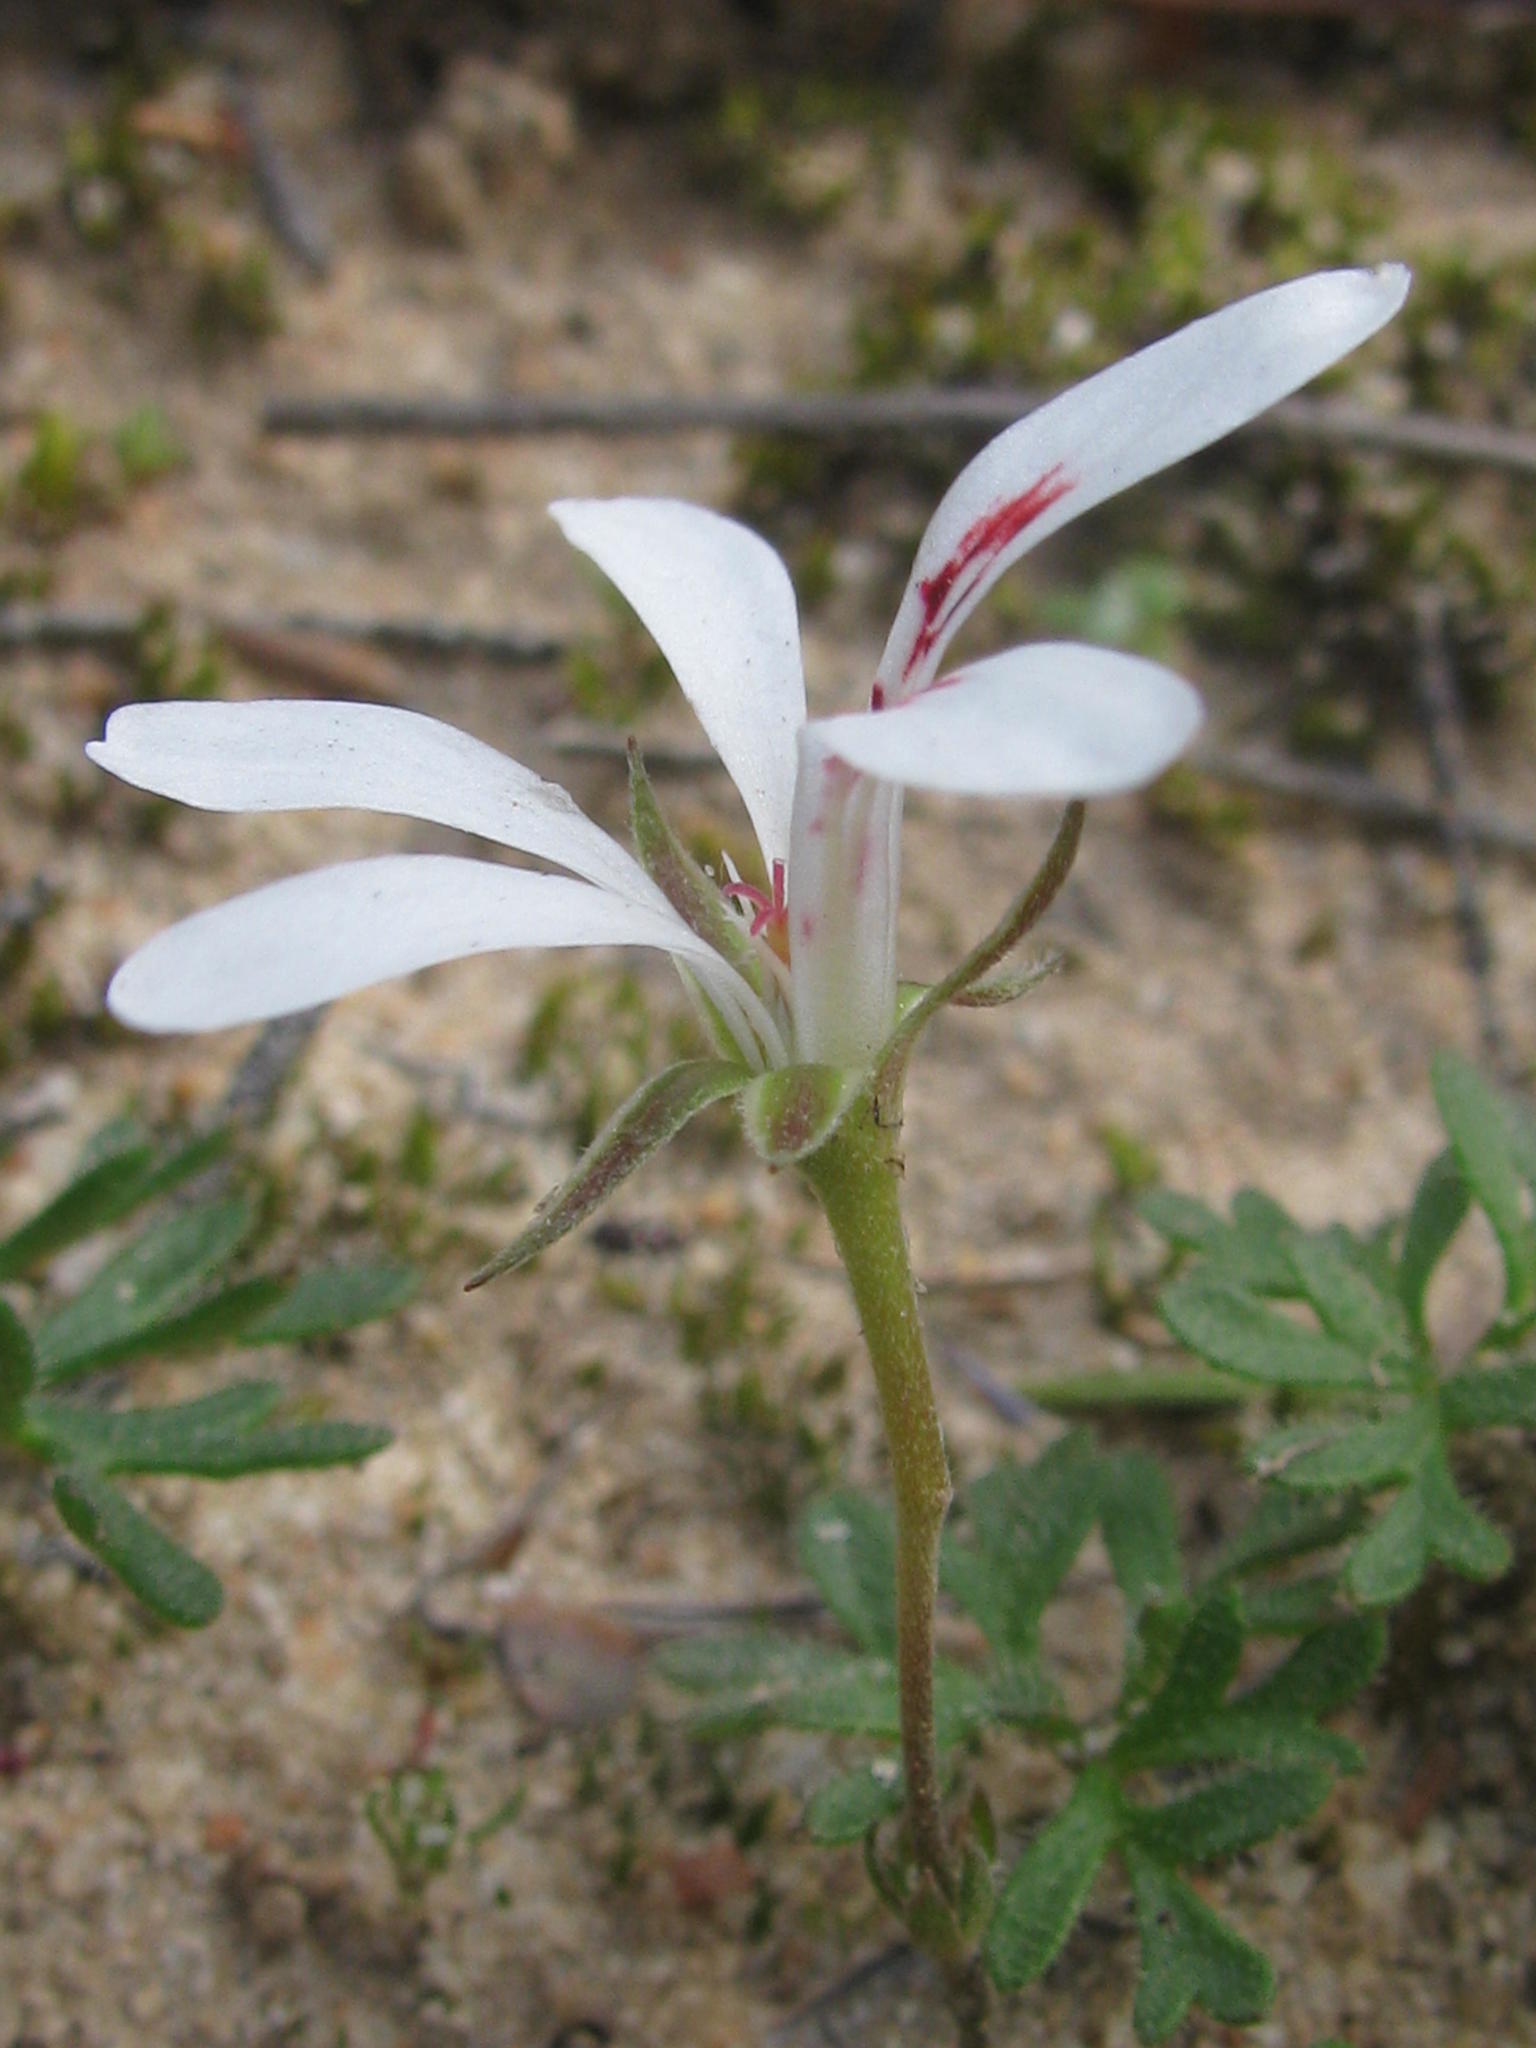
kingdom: Plantae
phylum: Tracheophyta
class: Magnoliopsida
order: Geraniales
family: Geraniaceae
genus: Pelargonium
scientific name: Pelargonium reflexum
